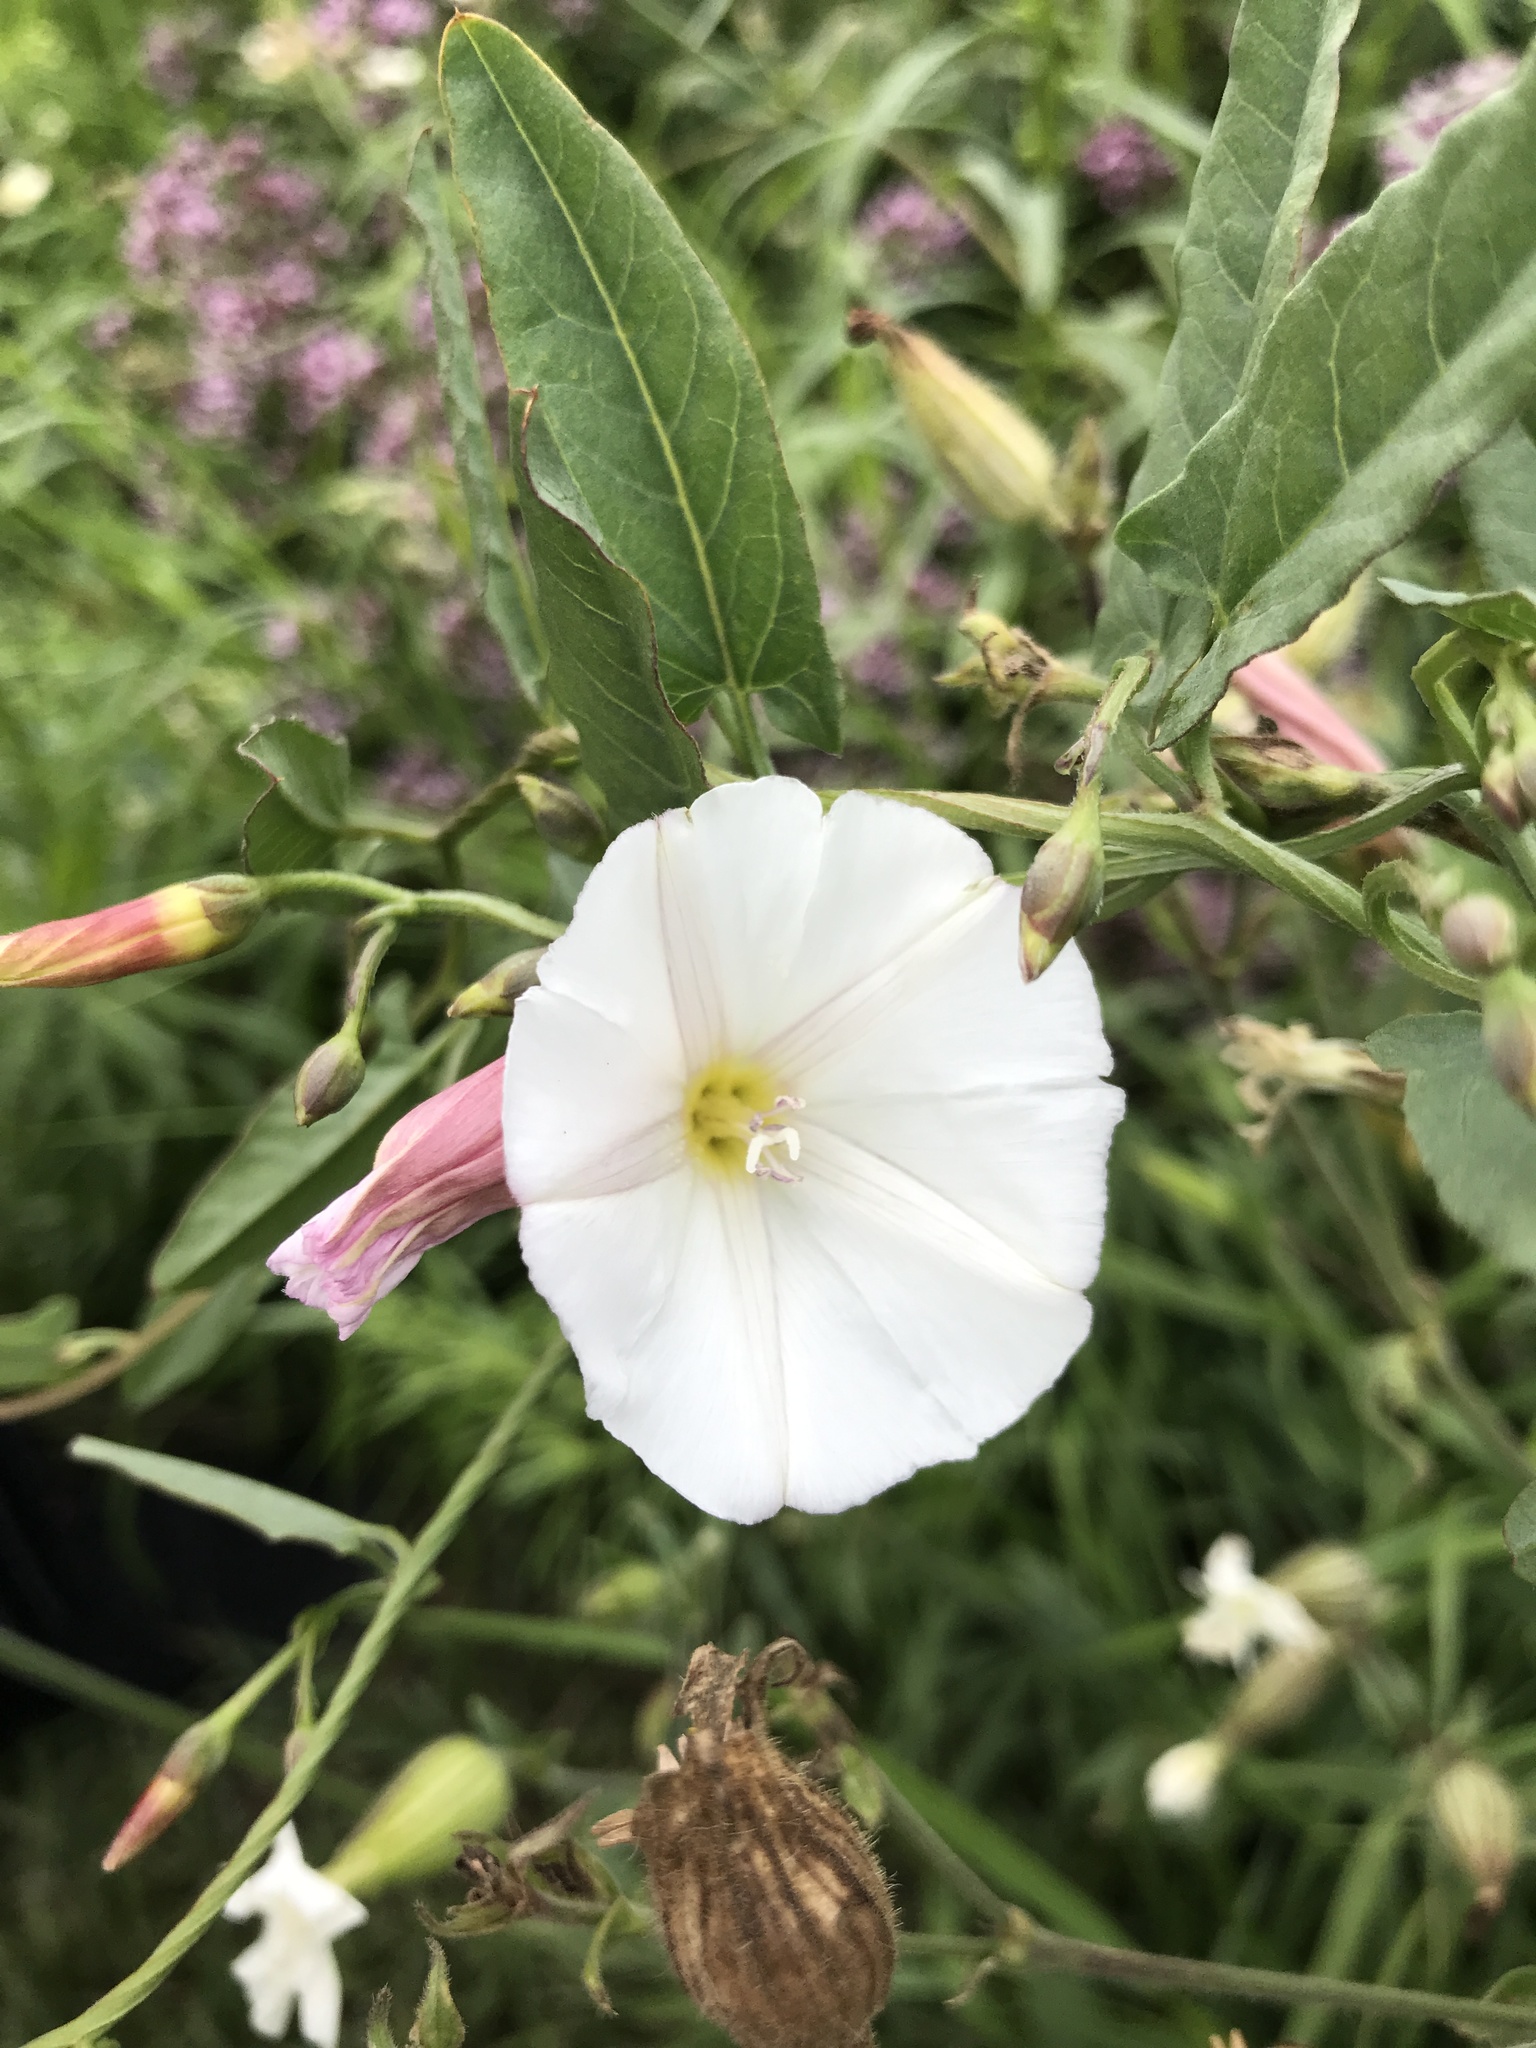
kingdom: Plantae
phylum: Tracheophyta
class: Magnoliopsida
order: Solanales
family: Convolvulaceae
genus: Convolvulus
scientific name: Convolvulus arvensis
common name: Field bindweed
